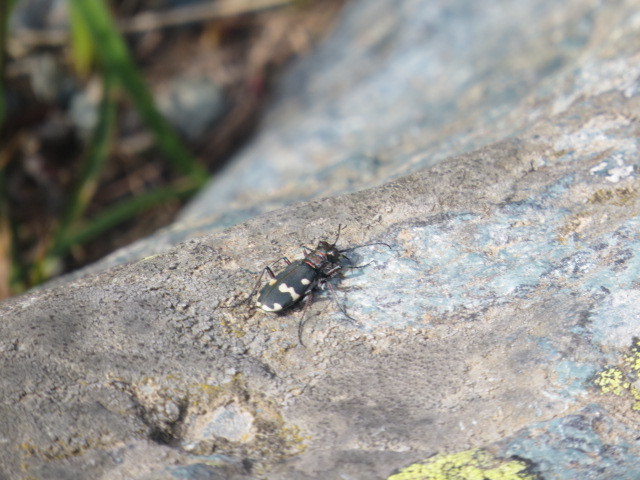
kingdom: Animalia
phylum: Arthropoda
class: Insecta
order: Coleoptera
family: Carabidae
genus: Cicindela
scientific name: Cicindela hybrida
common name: Northern dune tiger beetle
